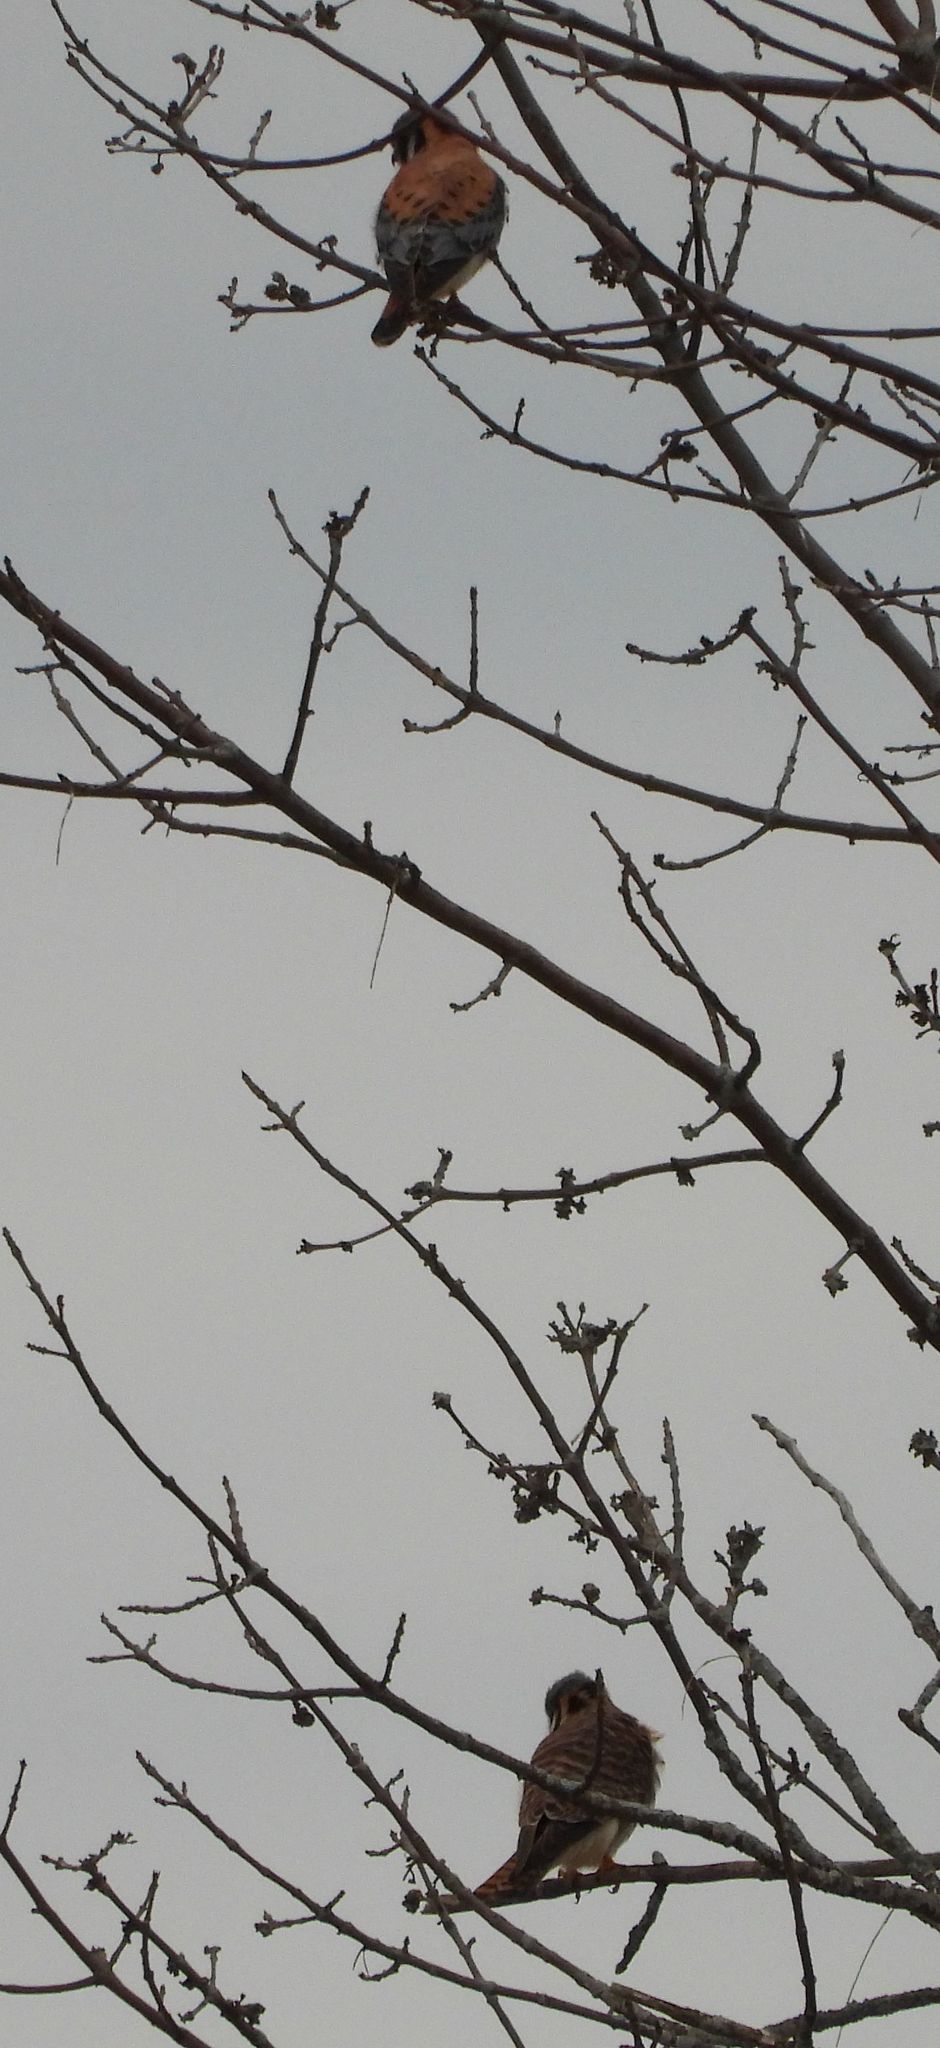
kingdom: Animalia
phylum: Chordata
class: Aves
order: Falconiformes
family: Falconidae
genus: Falco
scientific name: Falco sparverius
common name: American kestrel
